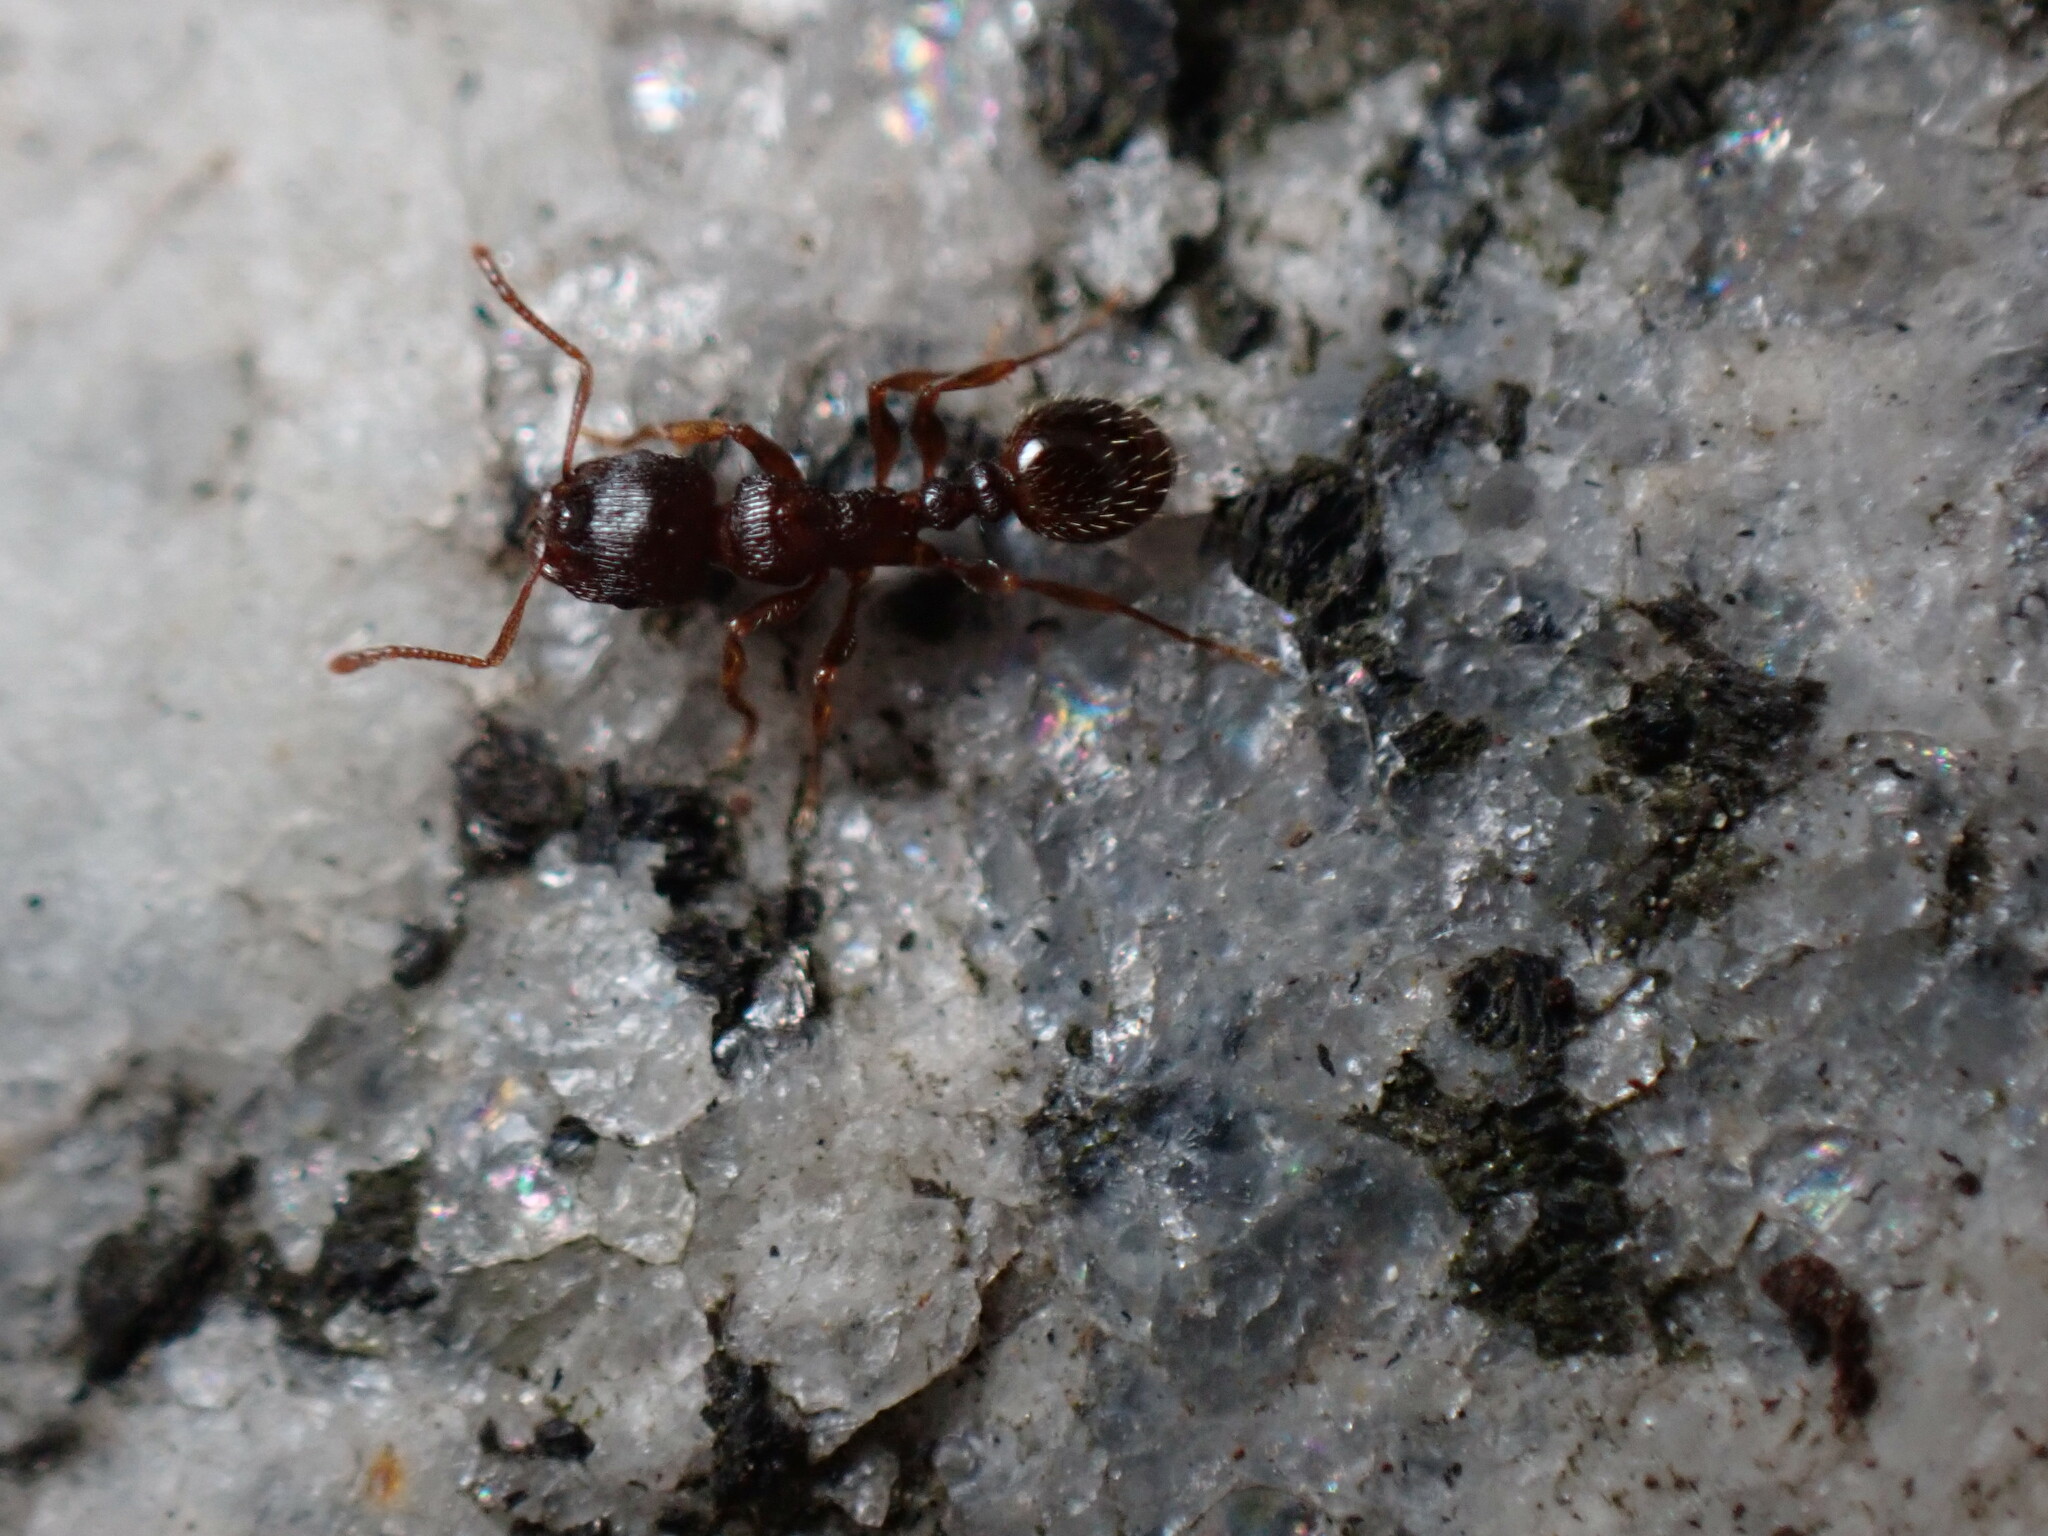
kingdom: Animalia
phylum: Arthropoda
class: Insecta
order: Hymenoptera
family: Formicidae
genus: Tetramorium
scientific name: Tetramorium immigrans
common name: Pavement ant
